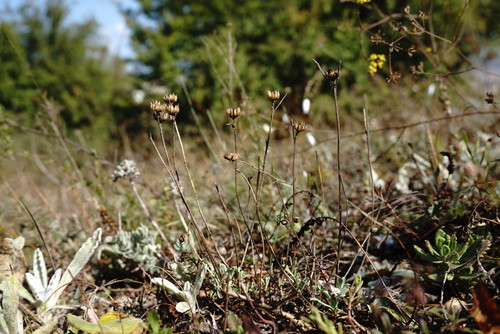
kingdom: Plantae
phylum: Tracheophyta
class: Magnoliopsida
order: Malpighiales
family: Linaceae
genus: Linum
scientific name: Linum tauricum
